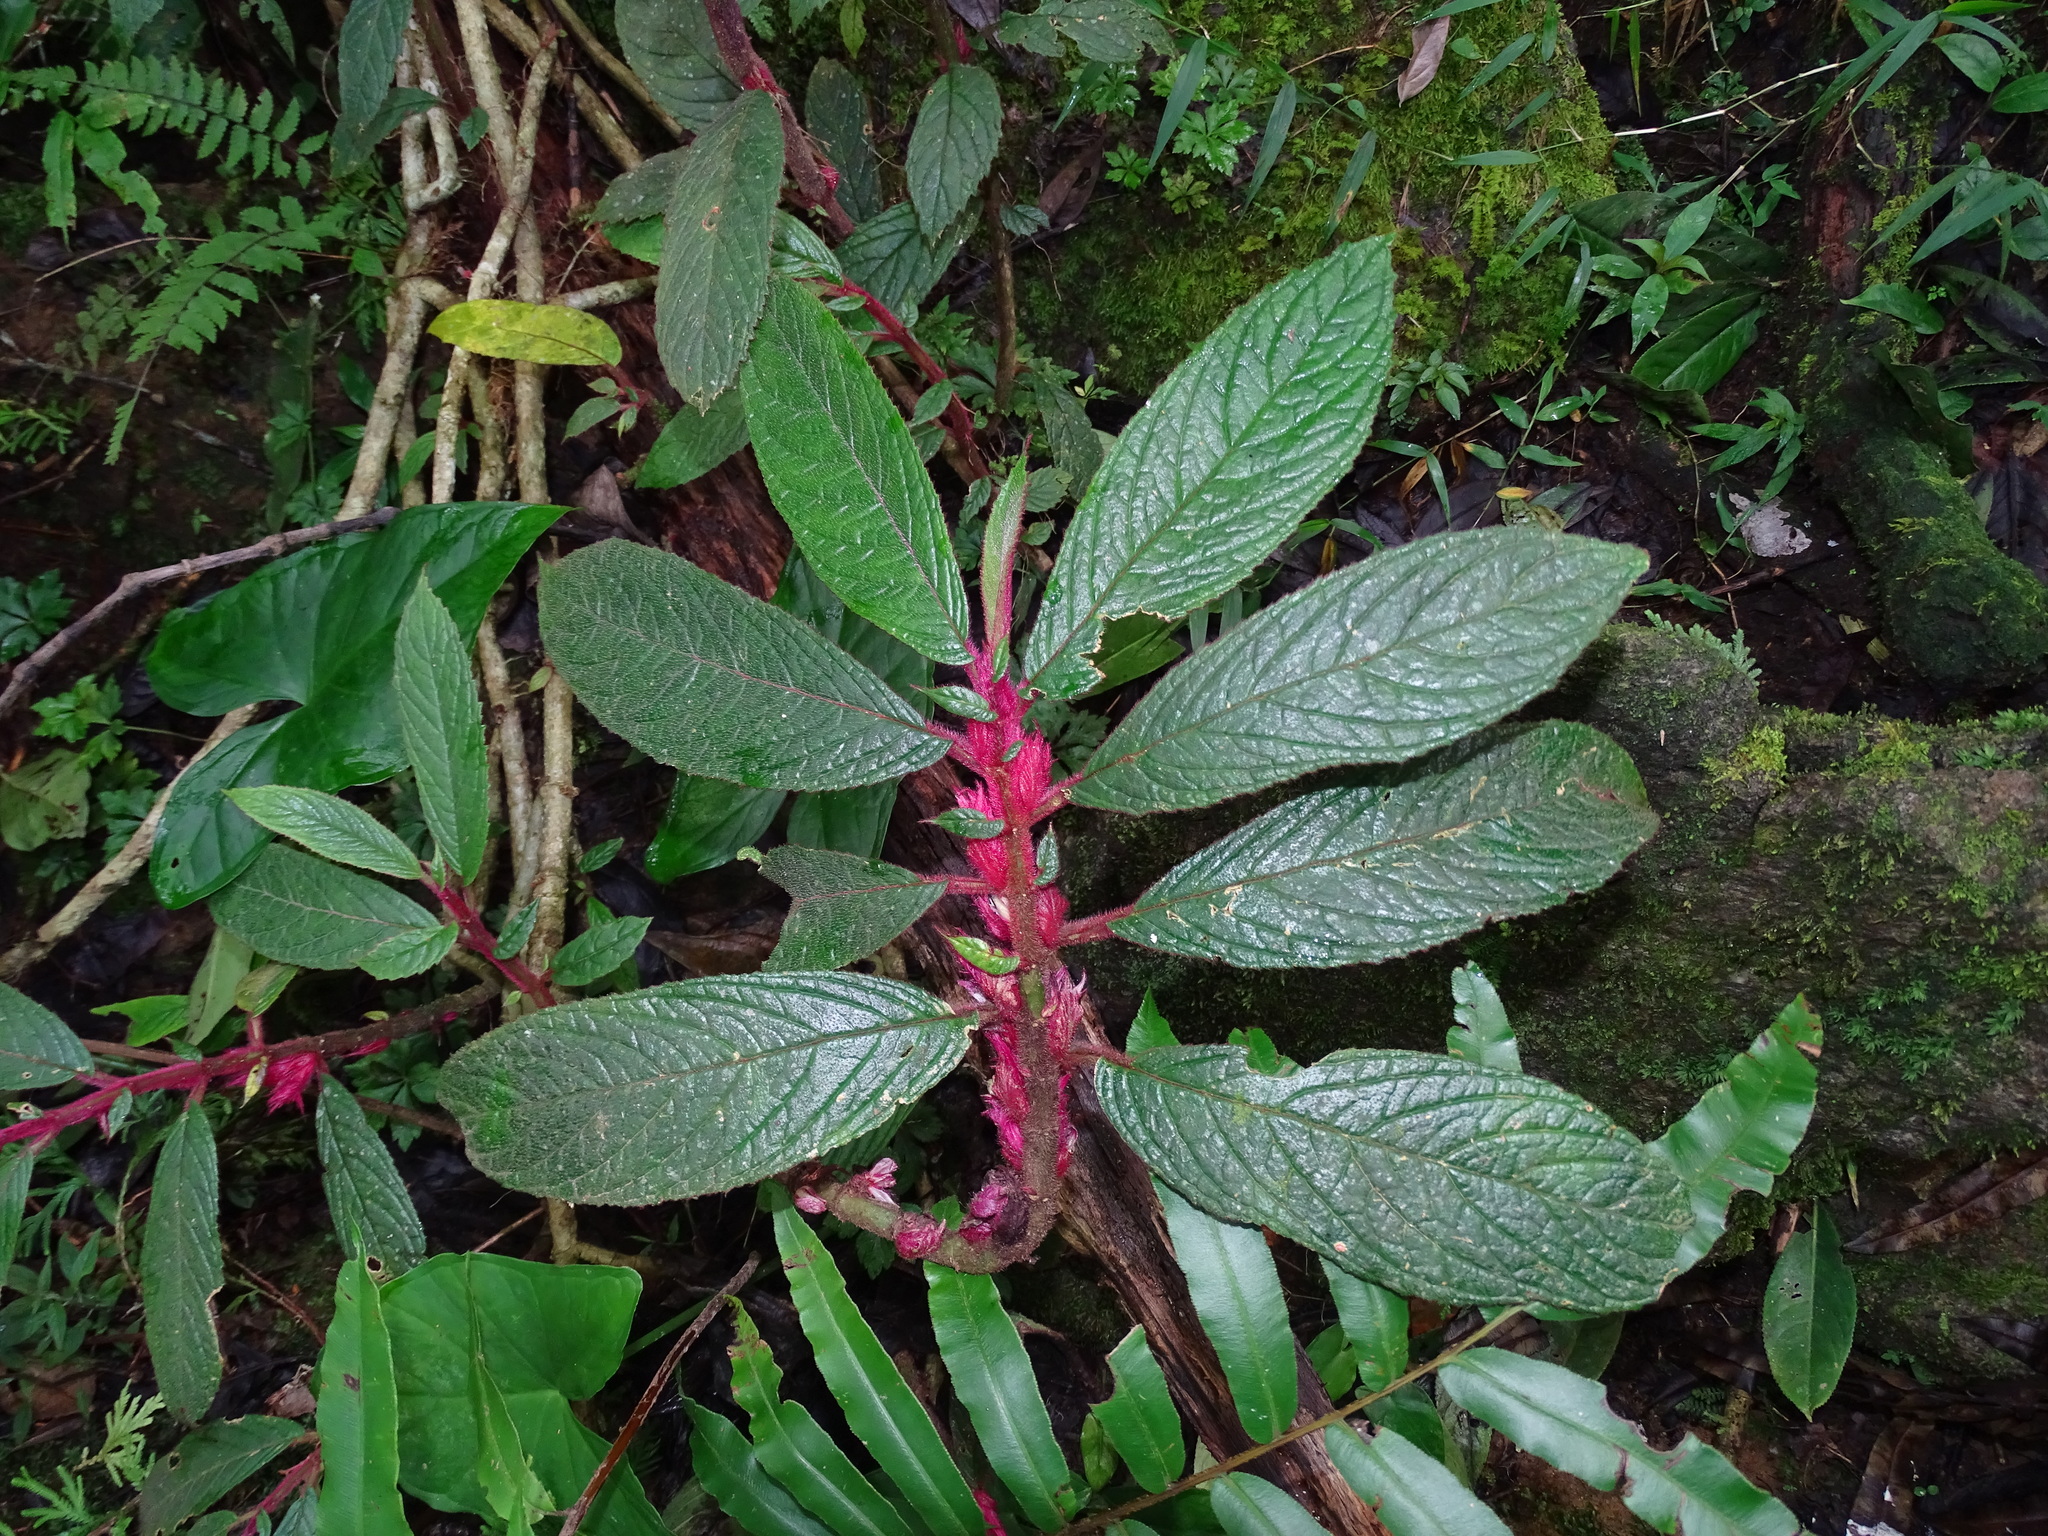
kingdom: Plantae
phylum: Tracheophyta
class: Magnoliopsida
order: Lamiales
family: Gesneriaceae
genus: Columnea
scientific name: Columnea purpurata
